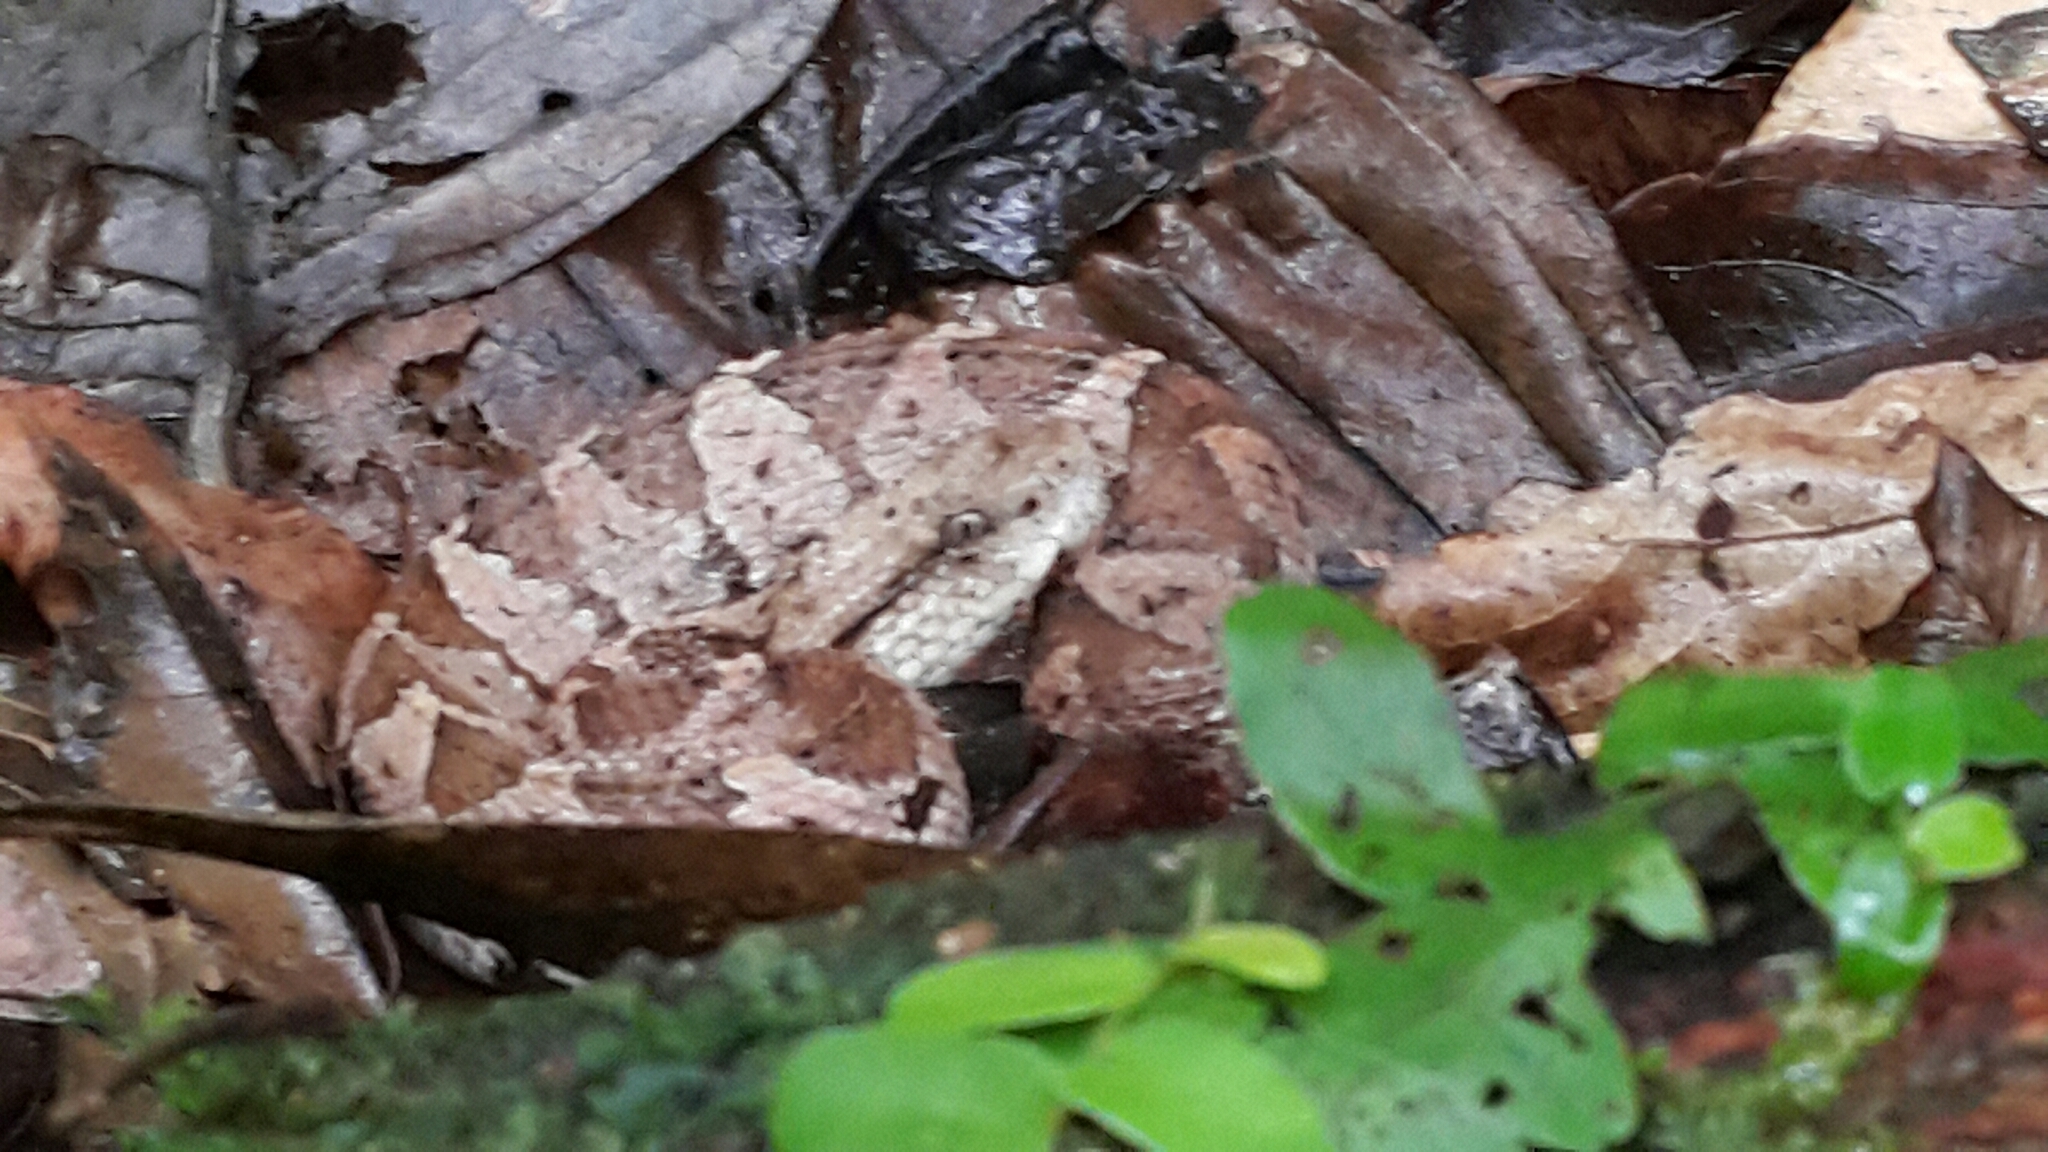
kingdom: Animalia
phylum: Chordata
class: Squamata
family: Viperidae
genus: Metlapilcoatlus
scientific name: Metlapilcoatlus mexicanus
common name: Central american jumping pit viper
